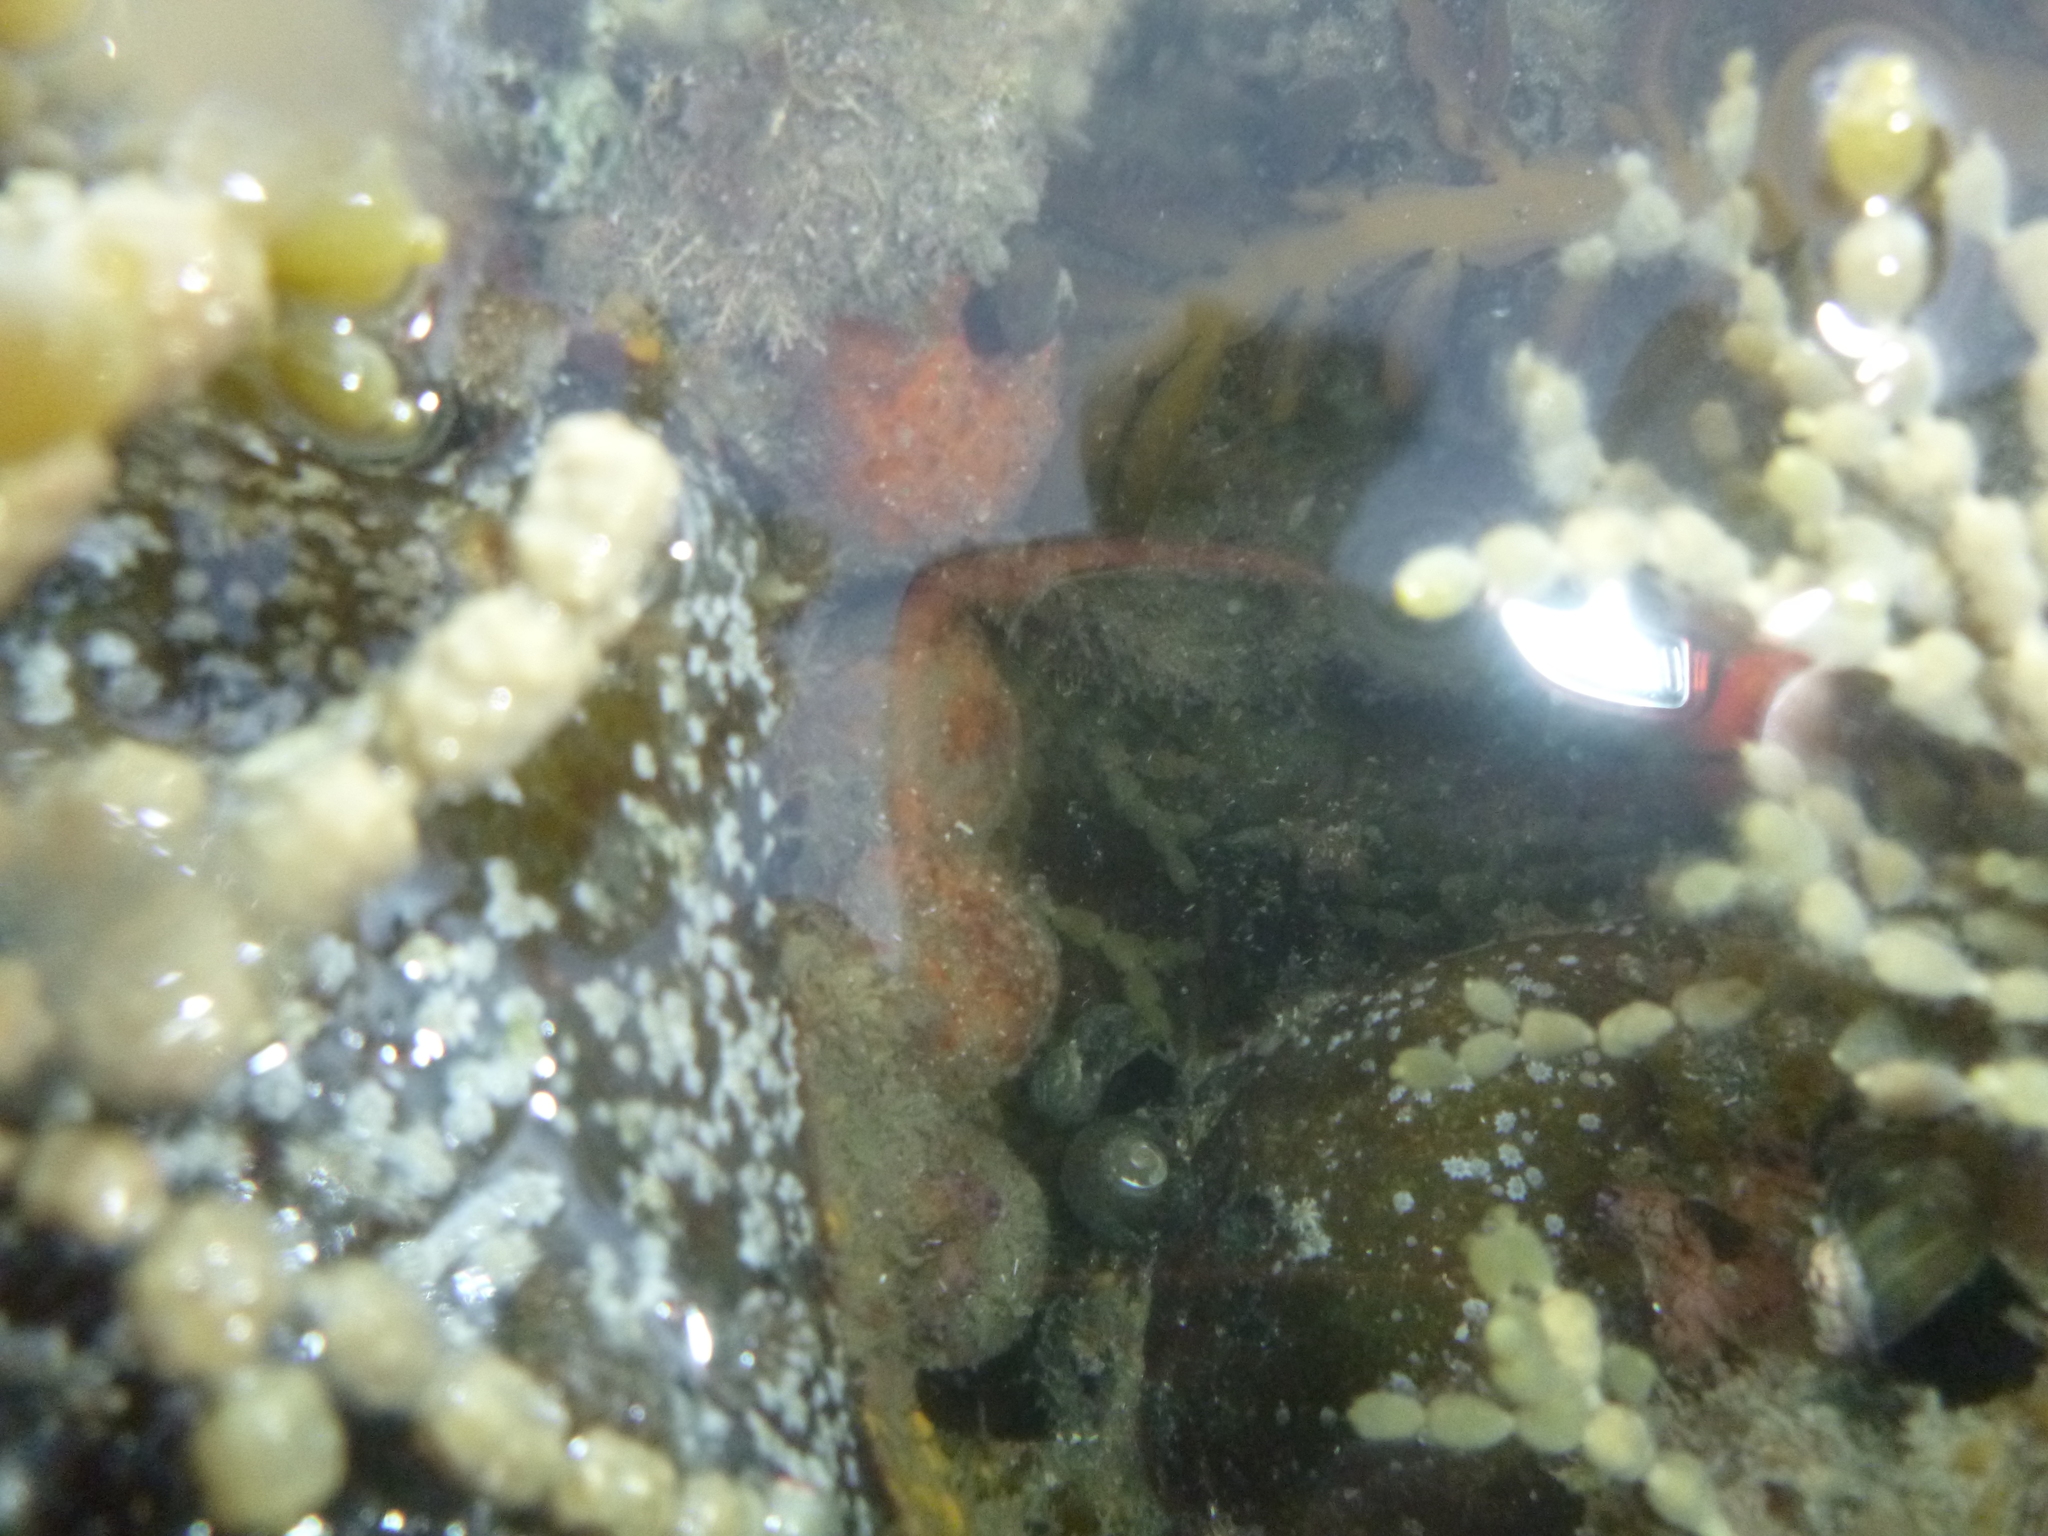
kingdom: Animalia
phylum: Porifera
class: Demospongiae
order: Tethyida
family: Tethyidae
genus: Tethya
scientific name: Tethya burtoni
